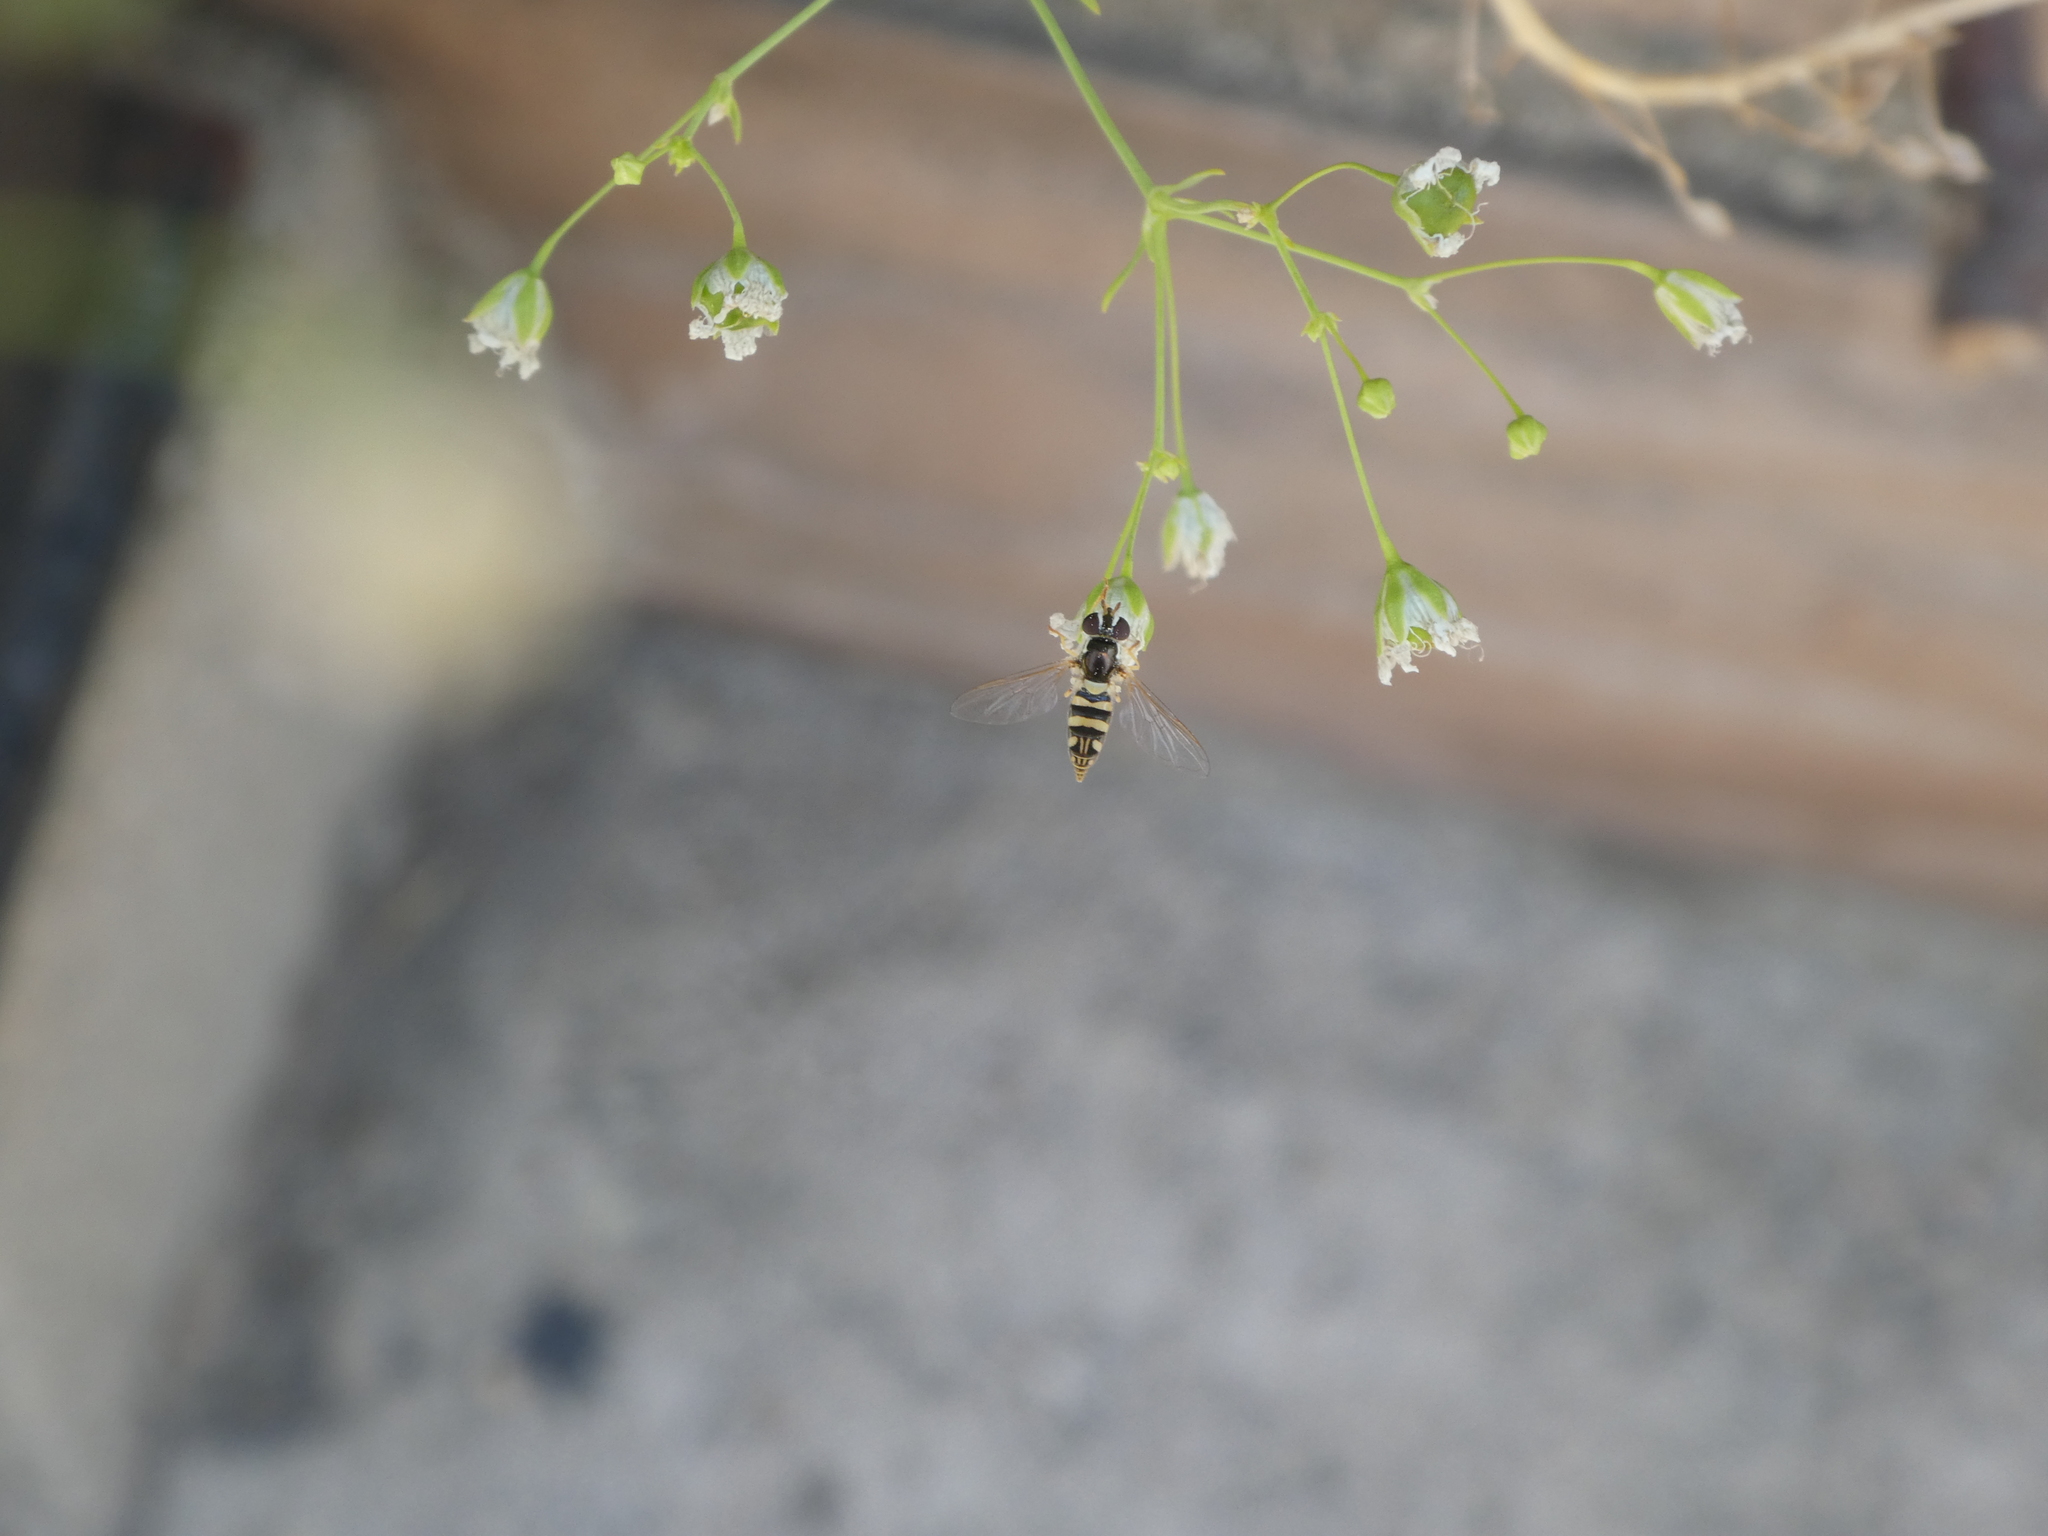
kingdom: Animalia
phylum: Arthropoda
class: Insecta
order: Diptera
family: Syrphidae
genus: Allograpta
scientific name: Allograpta exotica
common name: Syrphid fly
